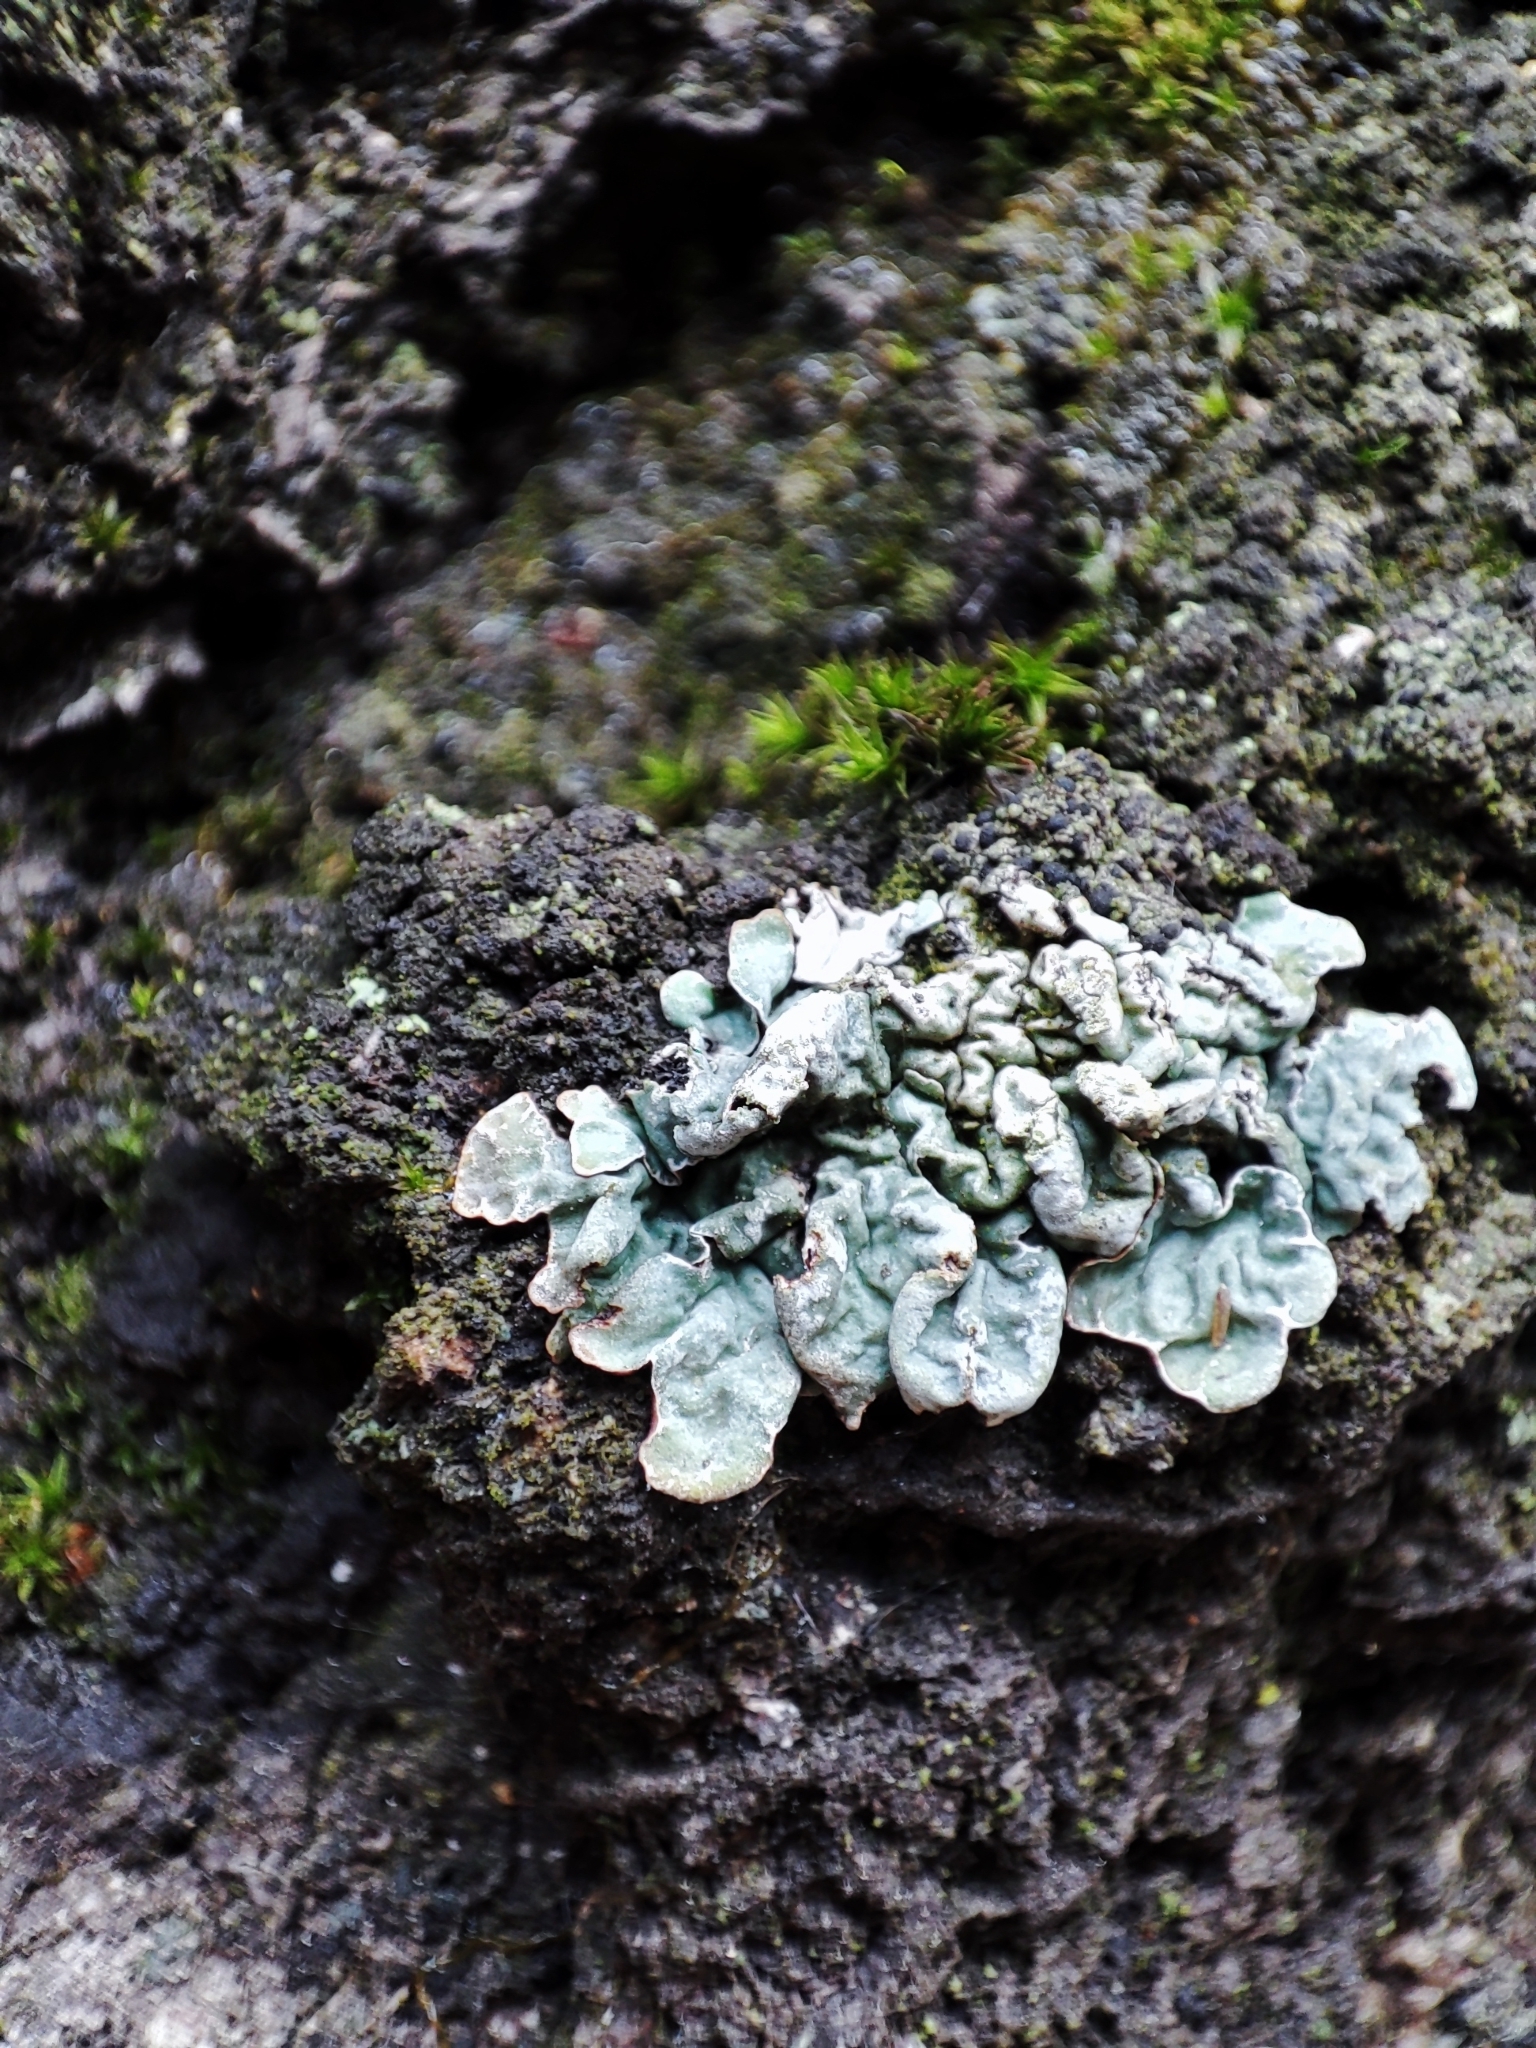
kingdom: Fungi
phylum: Ascomycota
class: Lecanoromycetes
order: Lecanorales
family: Parmeliaceae
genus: Parmelia
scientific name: Parmelia sulcata
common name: Netted shield lichen
